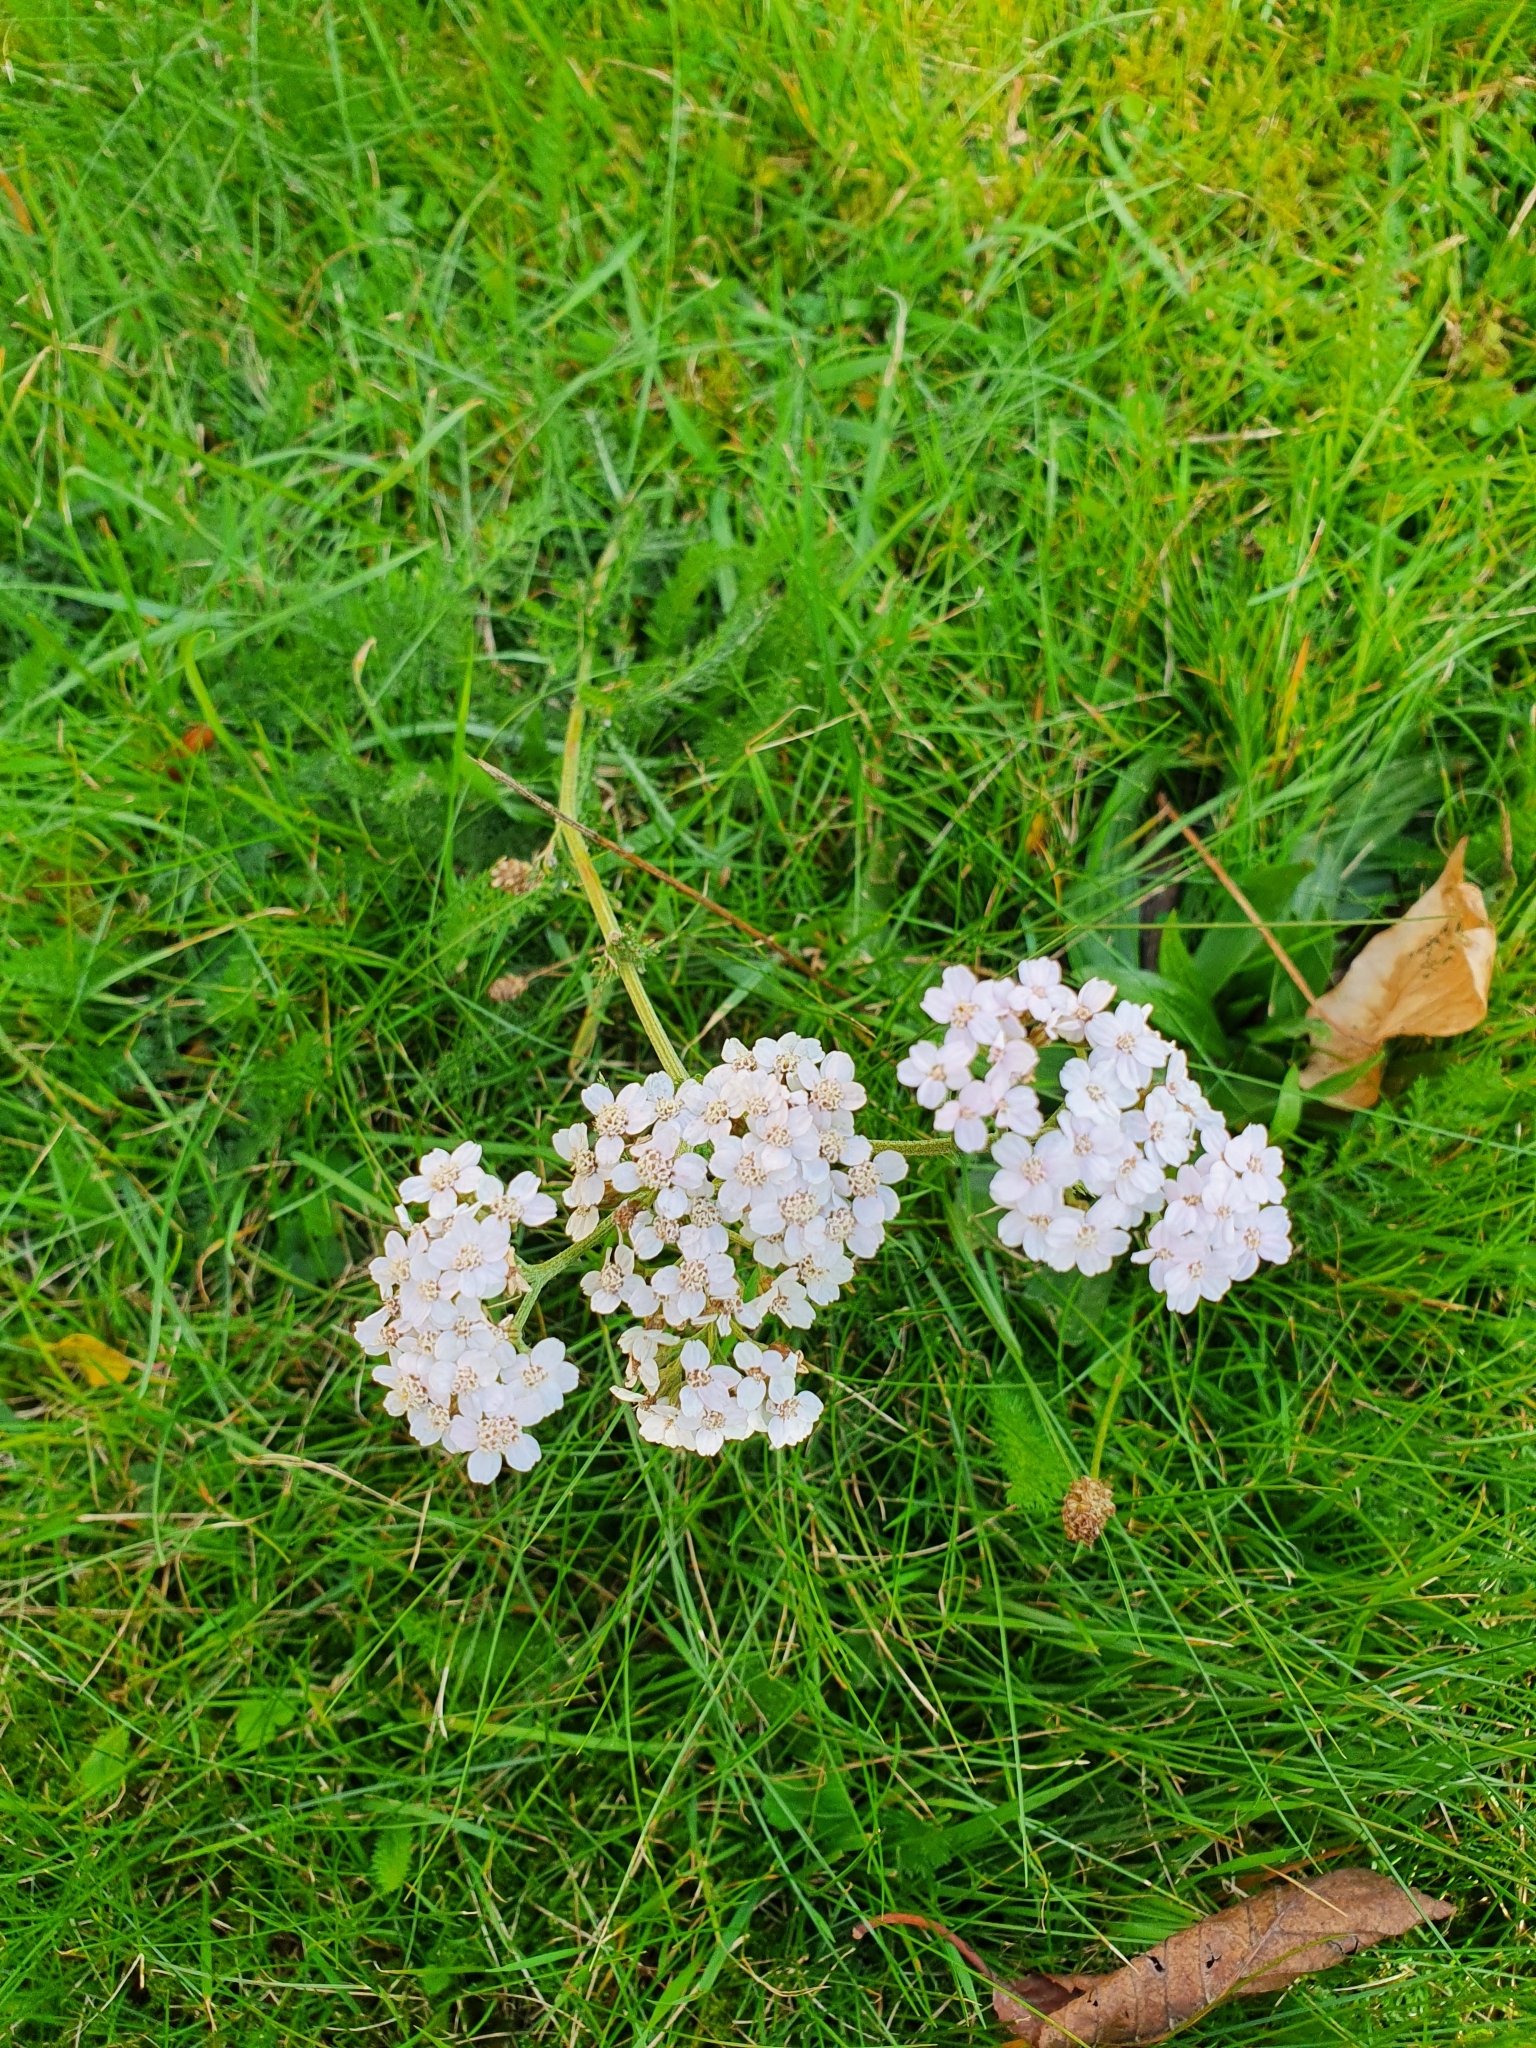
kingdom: Plantae
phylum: Tracheophyta
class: Magnoliopsida
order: Asterales
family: Asteraceae
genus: Achillea
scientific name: Achillea millefolium
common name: Yarrow
